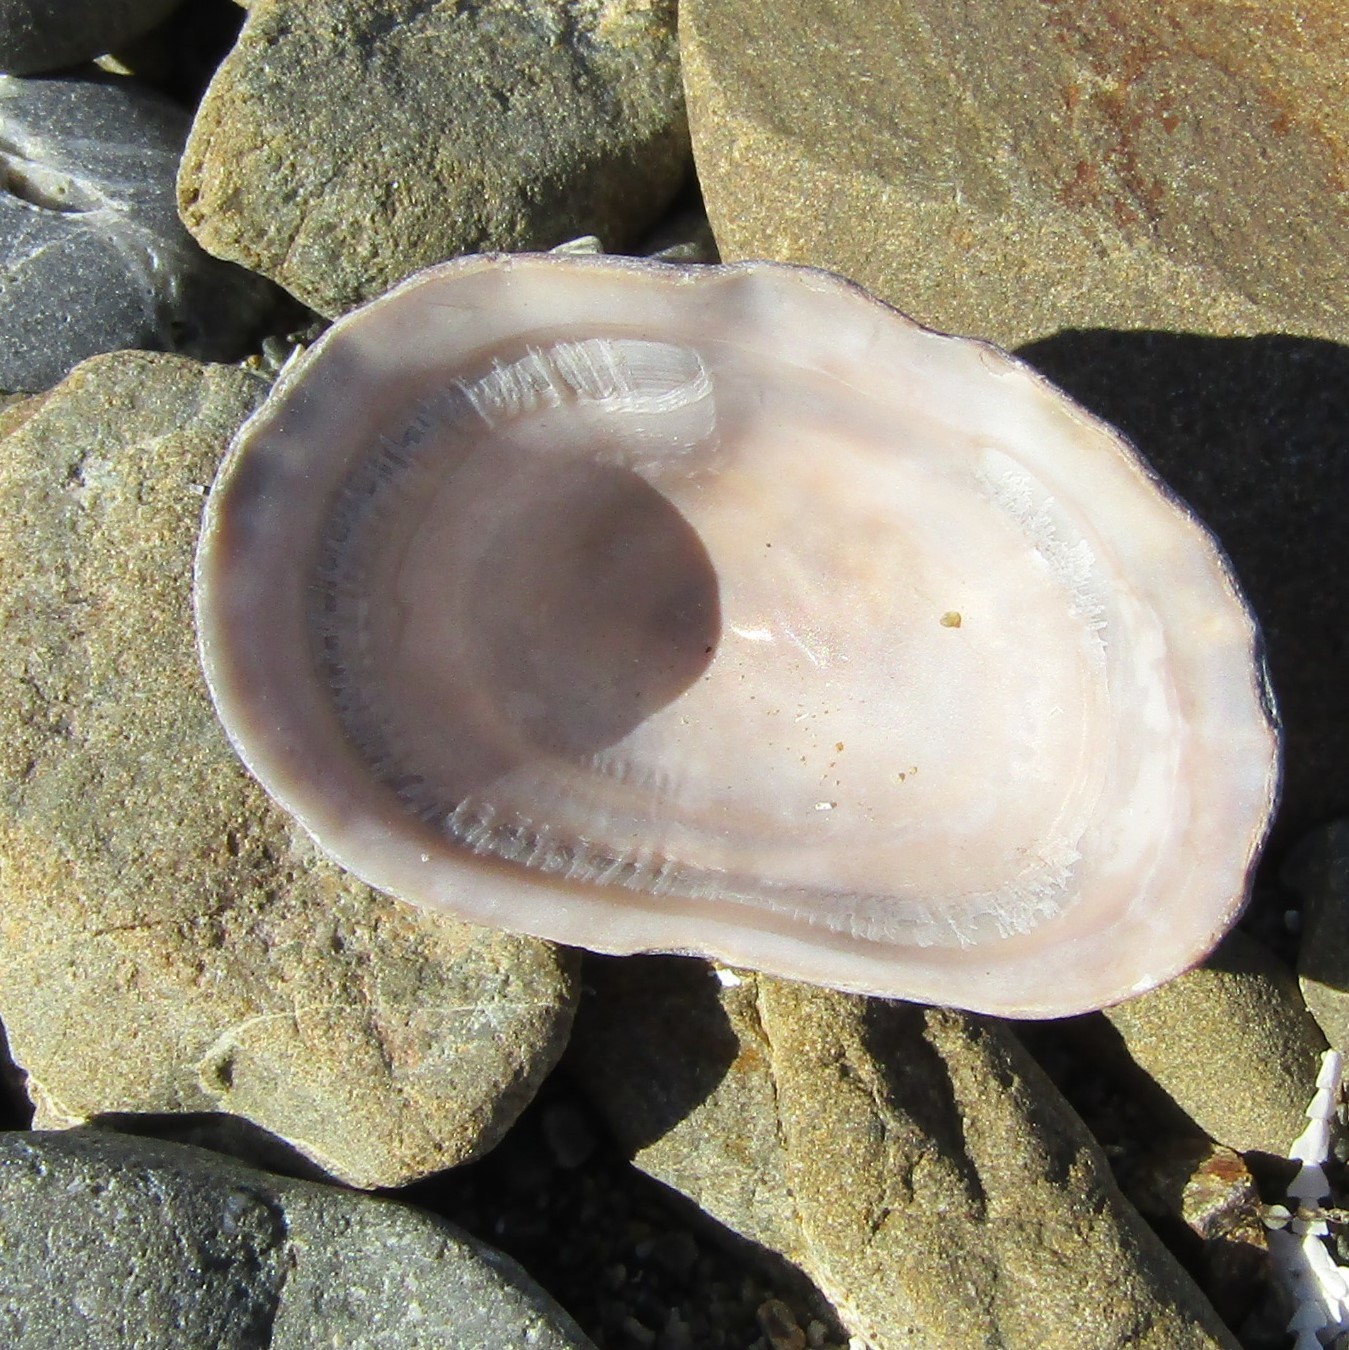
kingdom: Animalia
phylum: Mollusca
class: Gastropoda
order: Siphonariida
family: Siphonariidae
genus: Benhamina
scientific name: Benhamina obliquata
